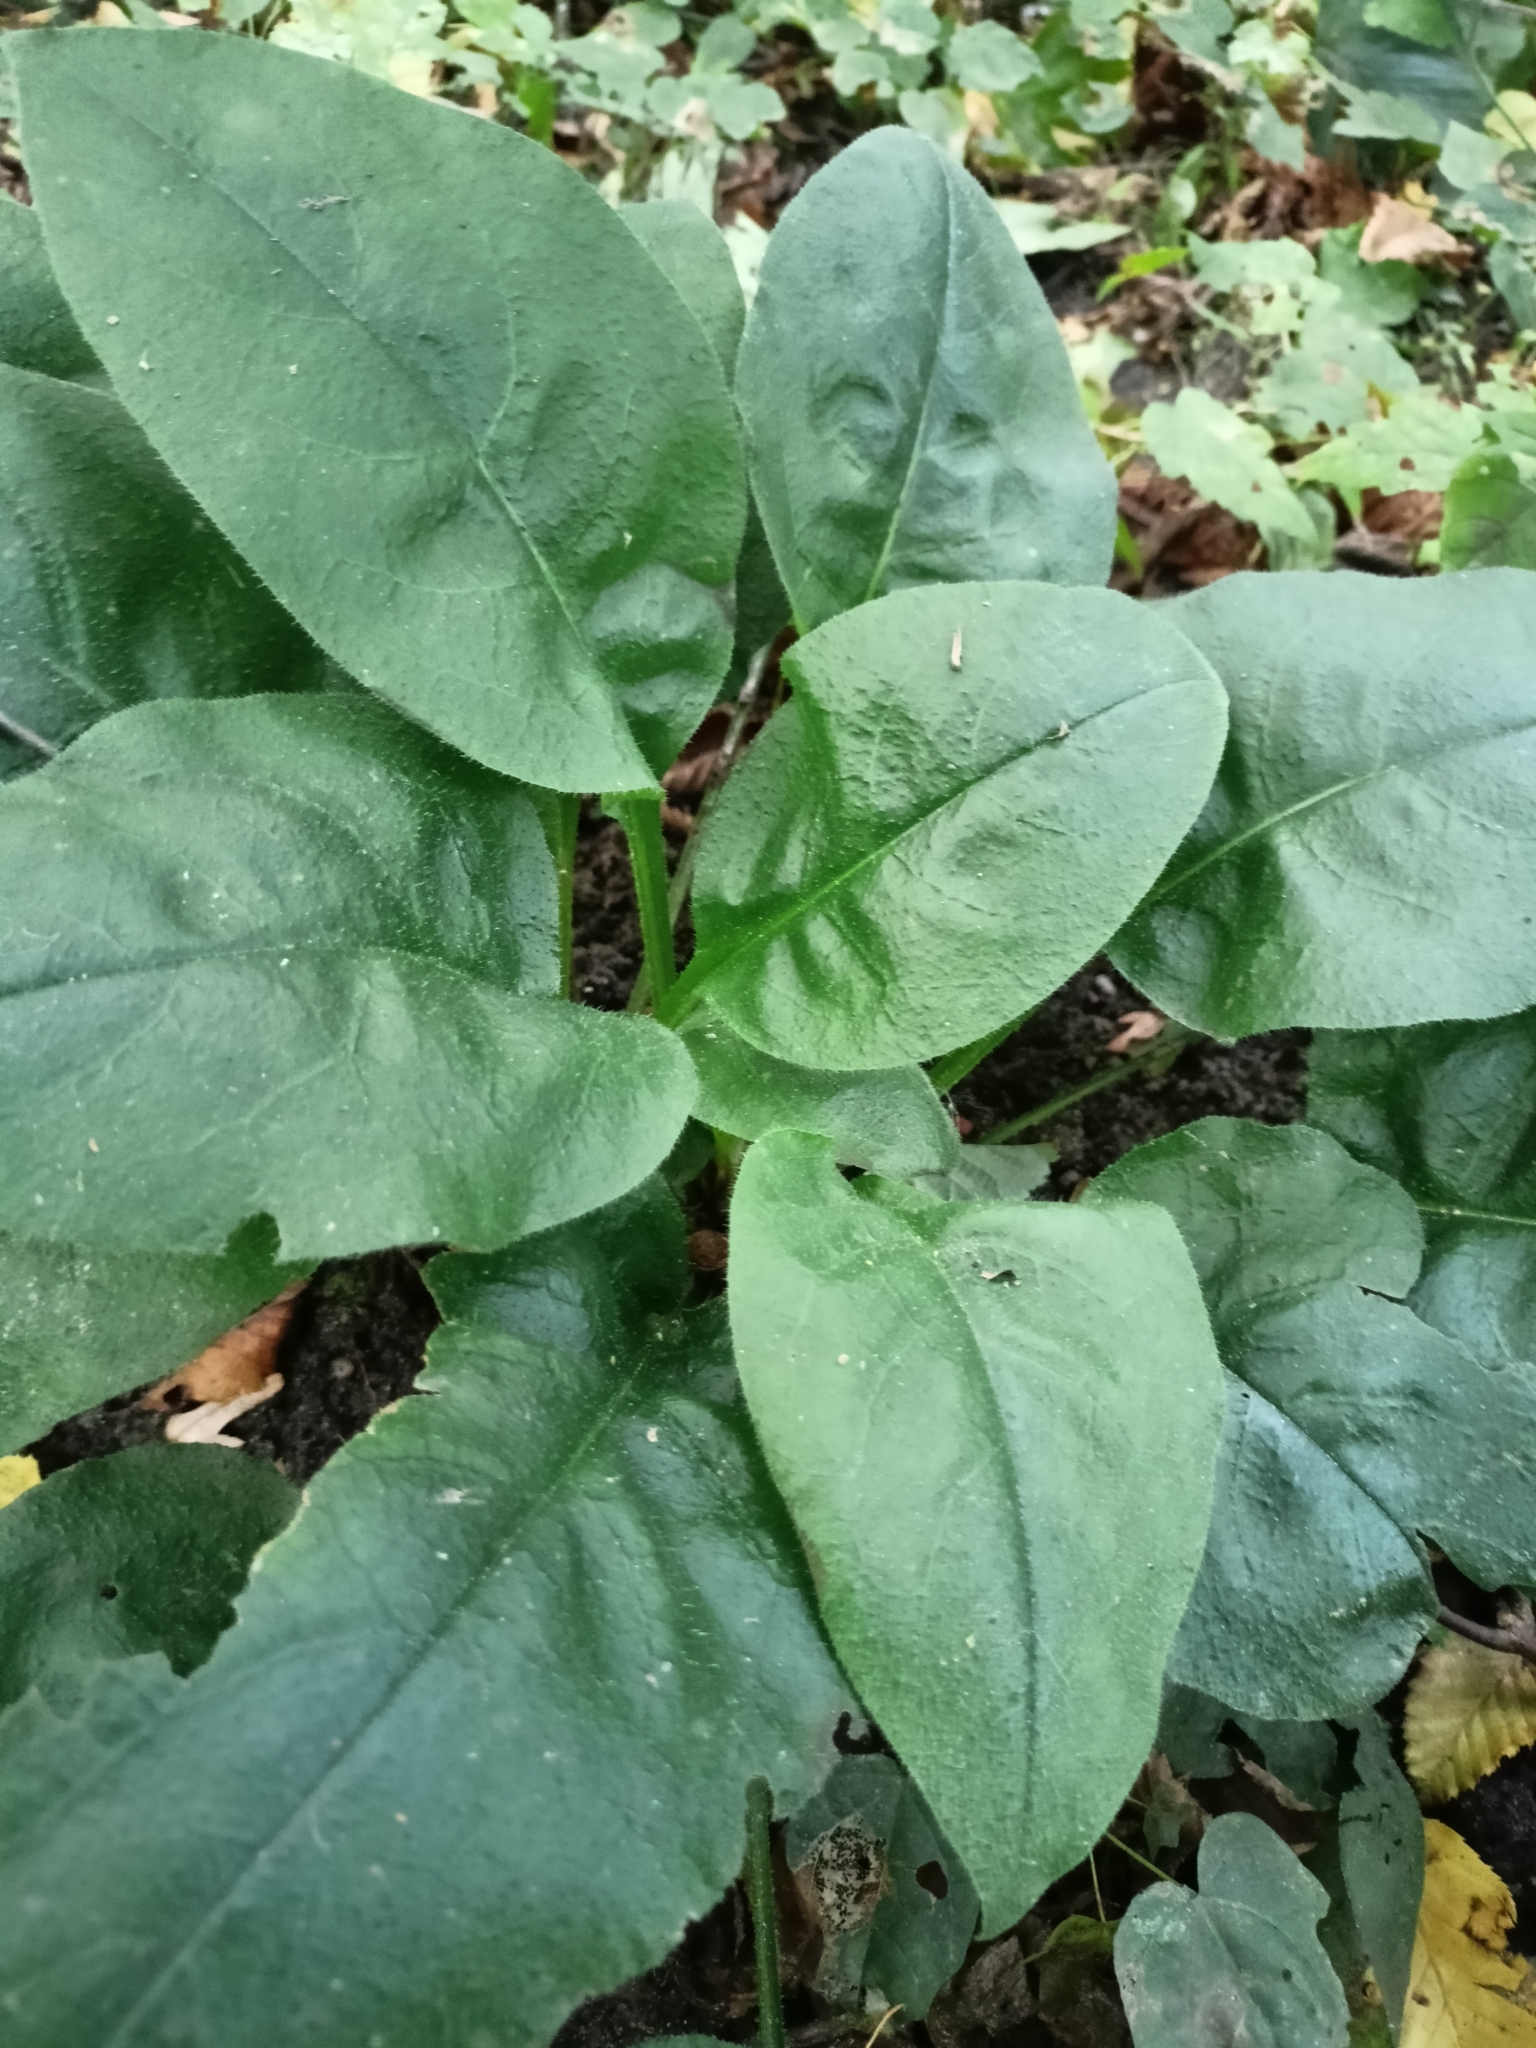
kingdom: Plantae
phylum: Tracheophyta
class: Magnoliopsida
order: Boraginales
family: Boraginaceae
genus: Pulmonaria
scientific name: Pulmonaria obscura
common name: Suffolk lungwort
